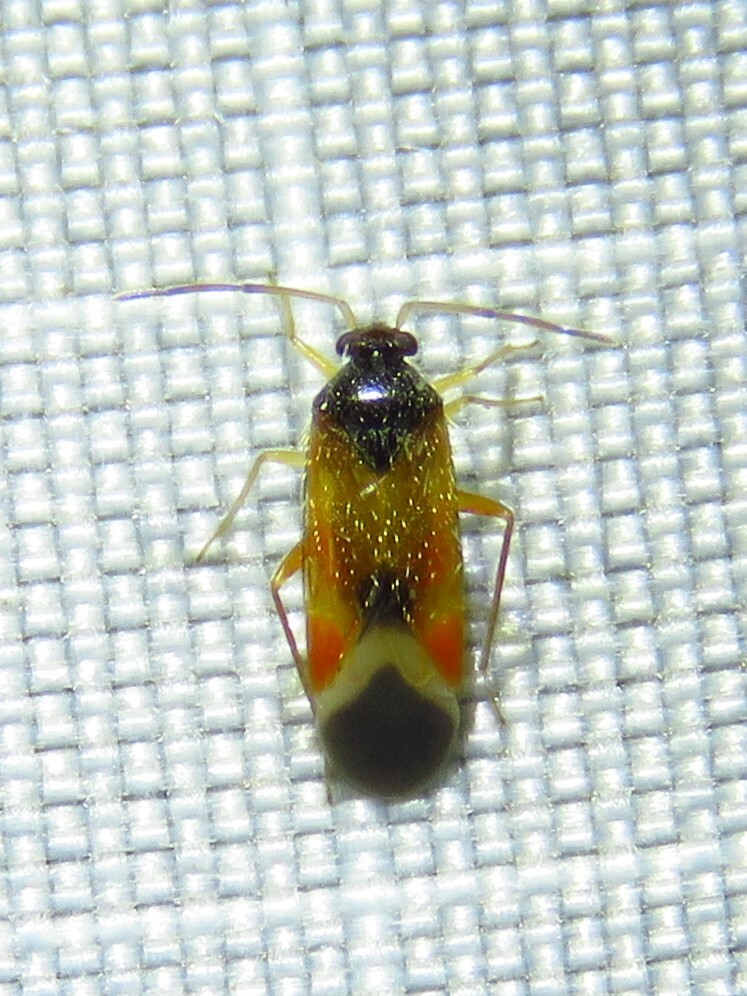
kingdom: Animalia
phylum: Arthropoda
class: Insecta
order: Hemiptera
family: Miridae
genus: Ceratocapsus
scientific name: Ceratocapsus apicalis
